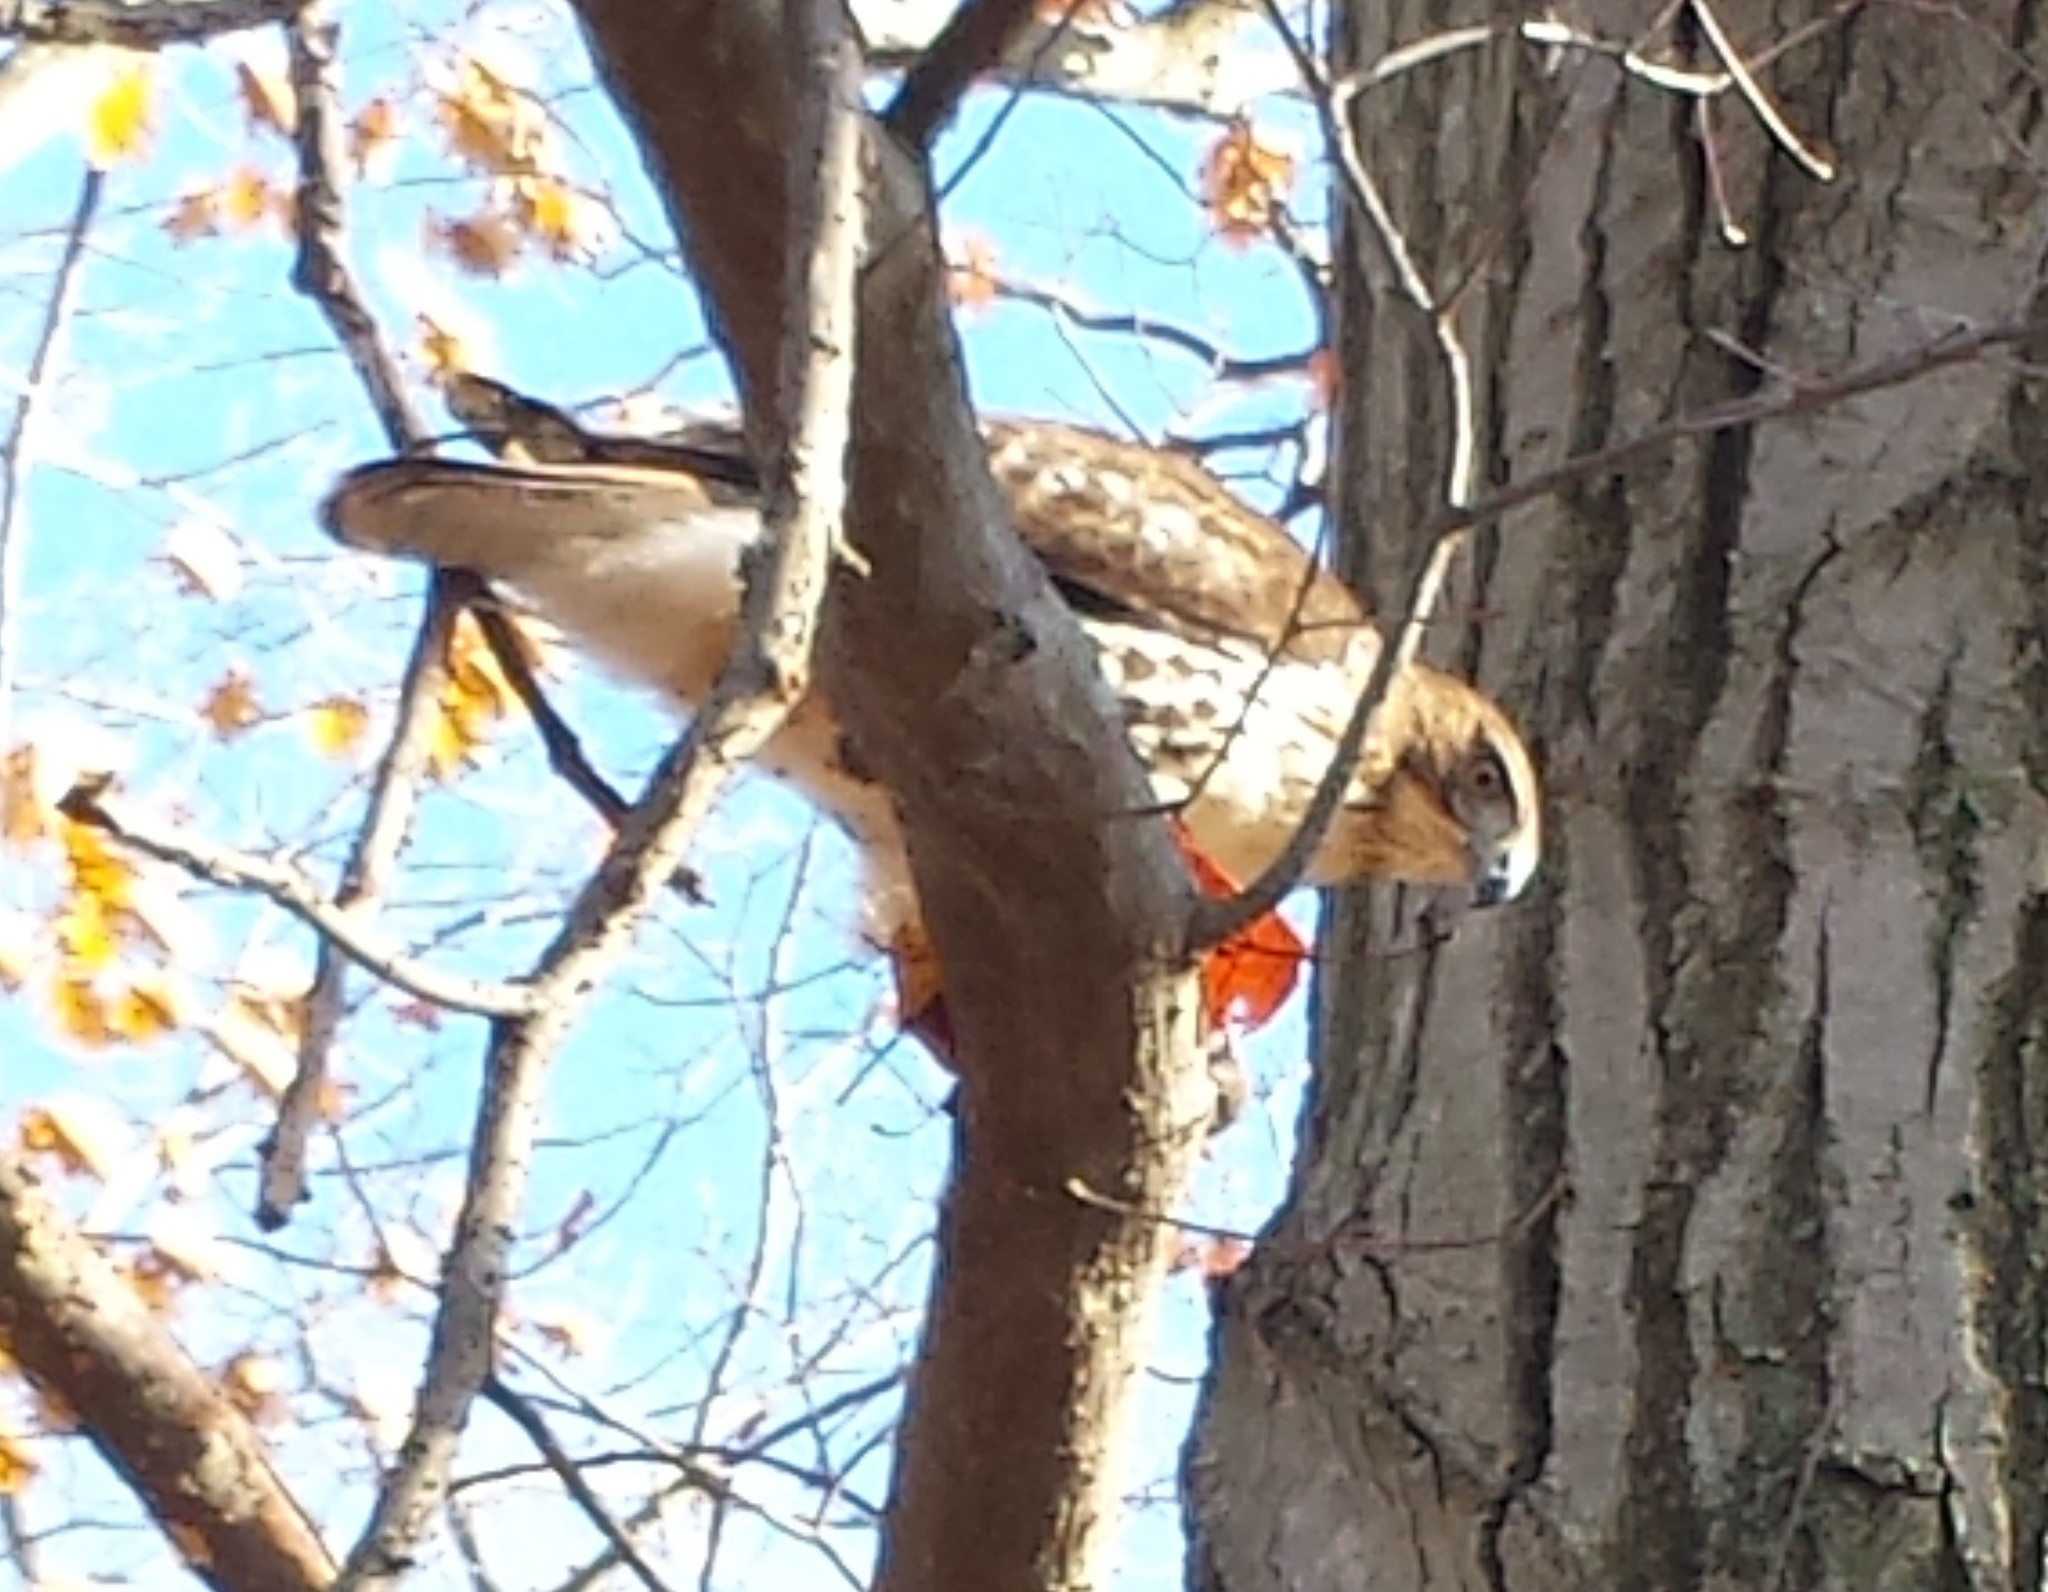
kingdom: Animalia
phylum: Chordata
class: Aves
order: Accipitriformes
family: Accipitridae
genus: Buteo
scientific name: Buteo jamaicensis
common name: Red-tailed hawk
